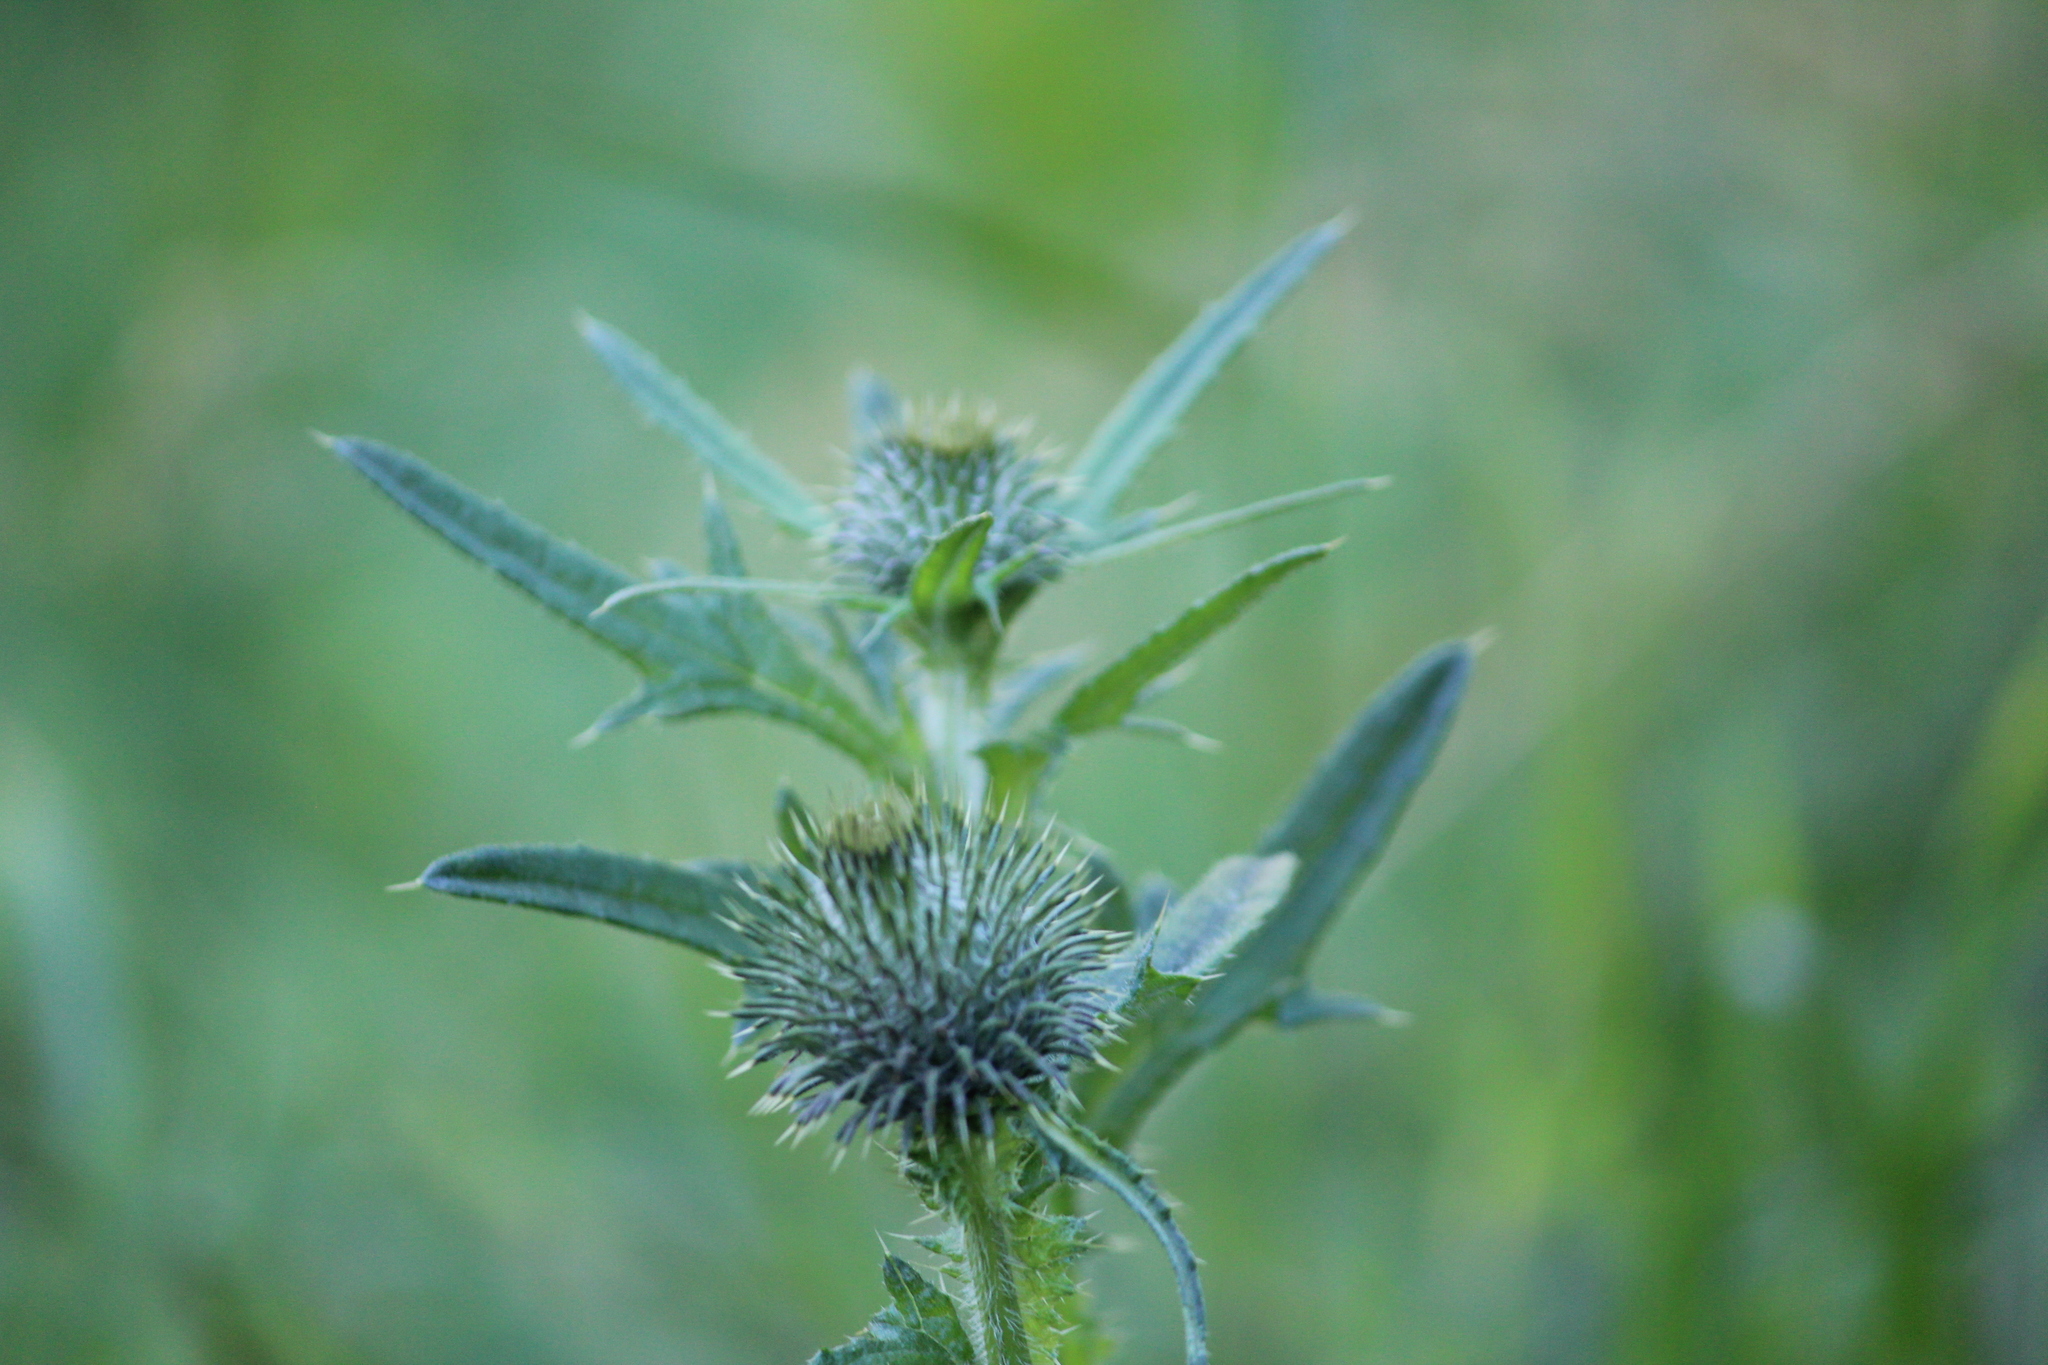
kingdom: Plantae
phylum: Tracheophyta
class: Magnoliopsida
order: Asterales
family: Asteraceae
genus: Cirsium
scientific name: Cirsium vulgare
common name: Bull thistle
